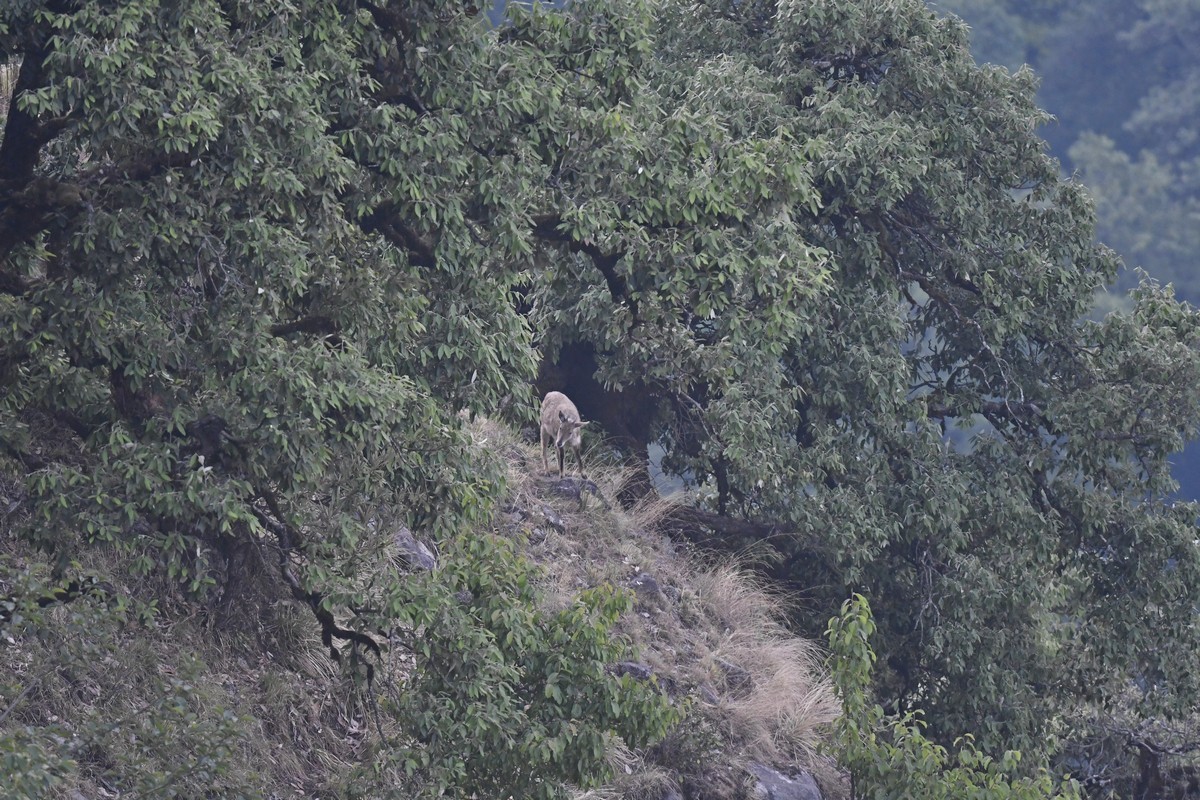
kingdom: Animalia
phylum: Chordata
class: Mammalia
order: Artiodactyla
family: Bovidae
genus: Naemorhedus
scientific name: Naemorhedus goral
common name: Goral
